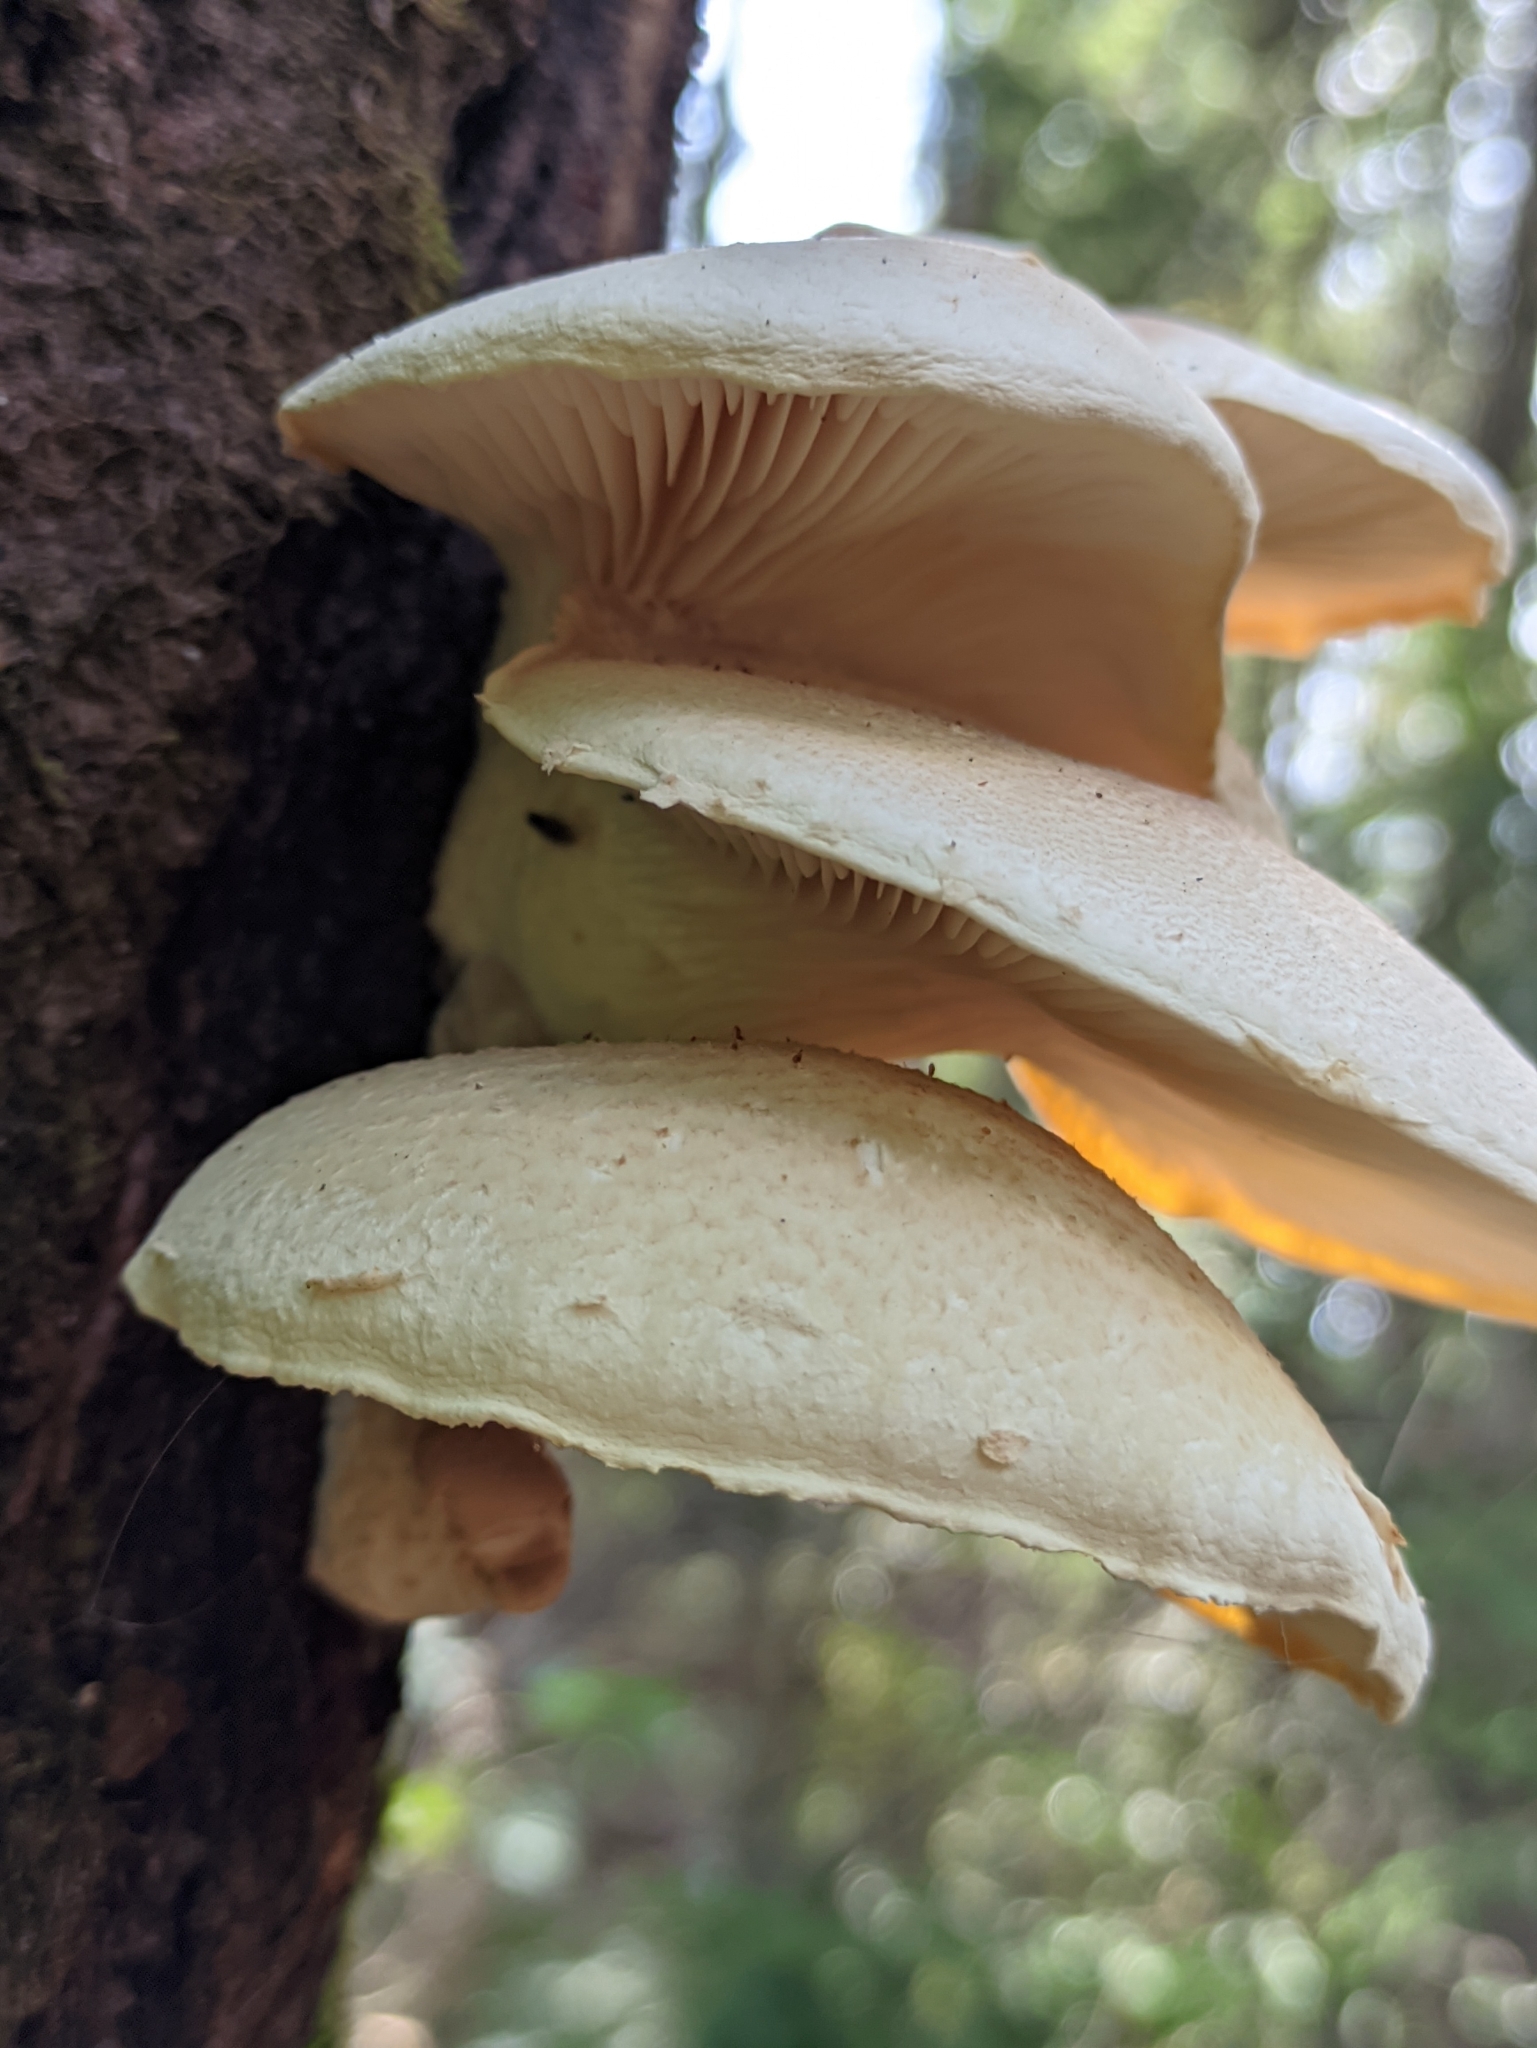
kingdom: Fungi
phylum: Basidiomycota
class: Agaricomycetes
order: Agaricales
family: Pleurotaceae
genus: Pleurotus
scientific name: Pleurotus dryinus
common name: Veiled oyster
